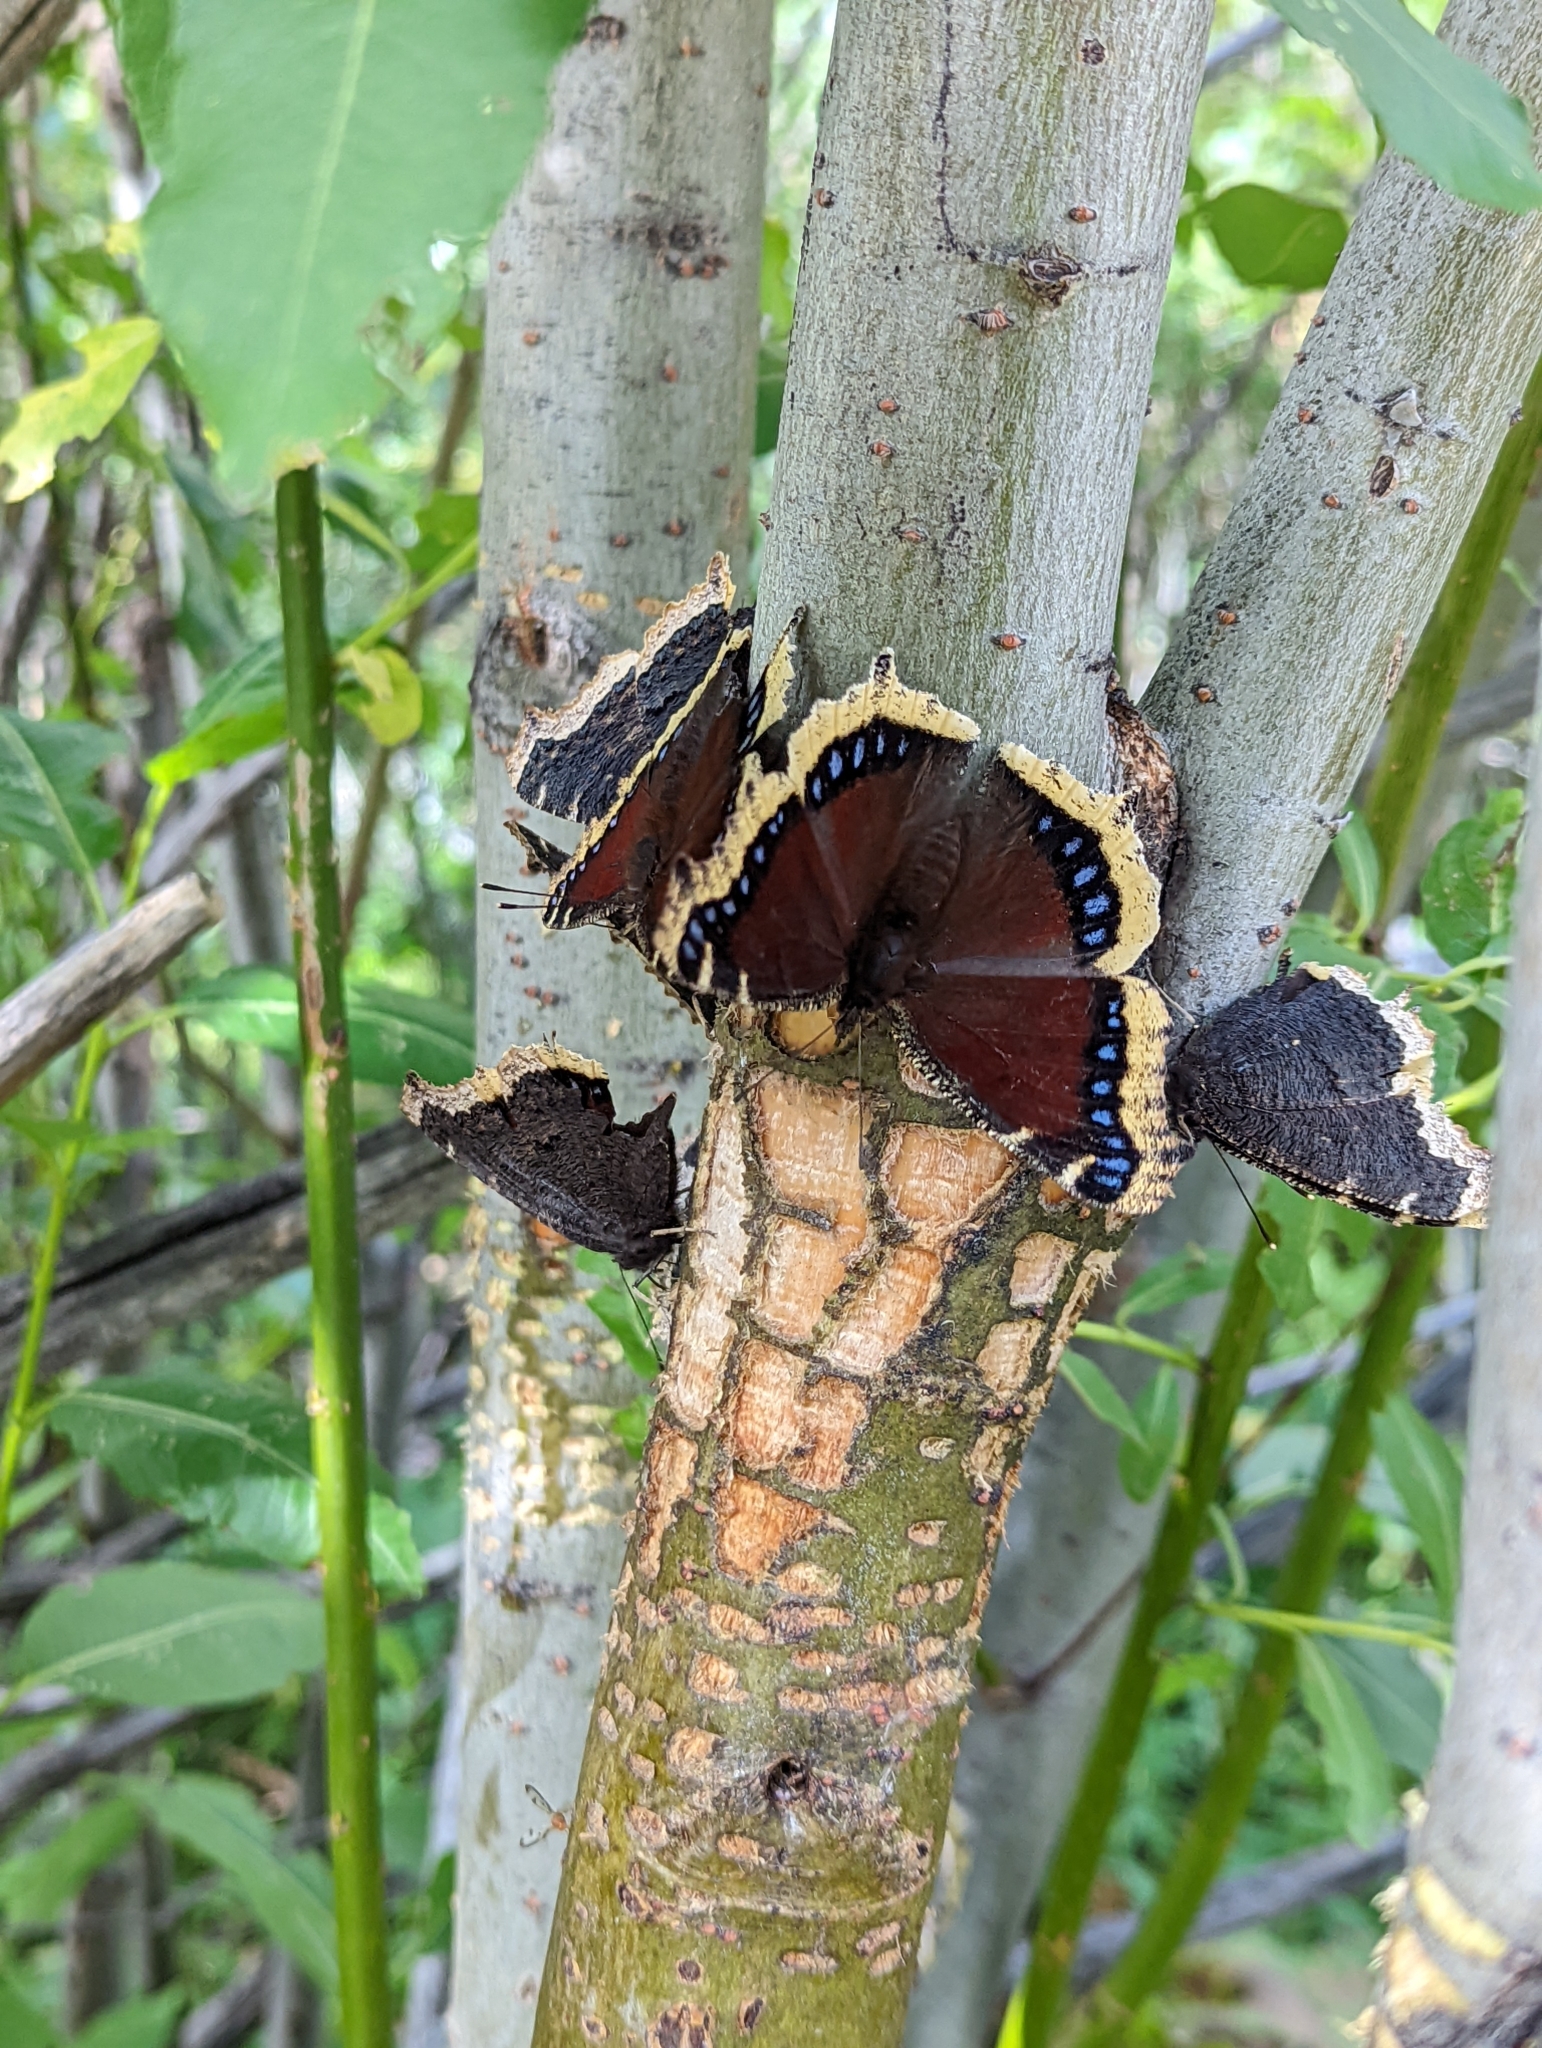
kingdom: Animalia
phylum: Arthropoda
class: Insecta
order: Lepidoptera
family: Nymphalidae
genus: Nymphalis
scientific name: Nymphalis antiopa
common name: Camberwell beauty
